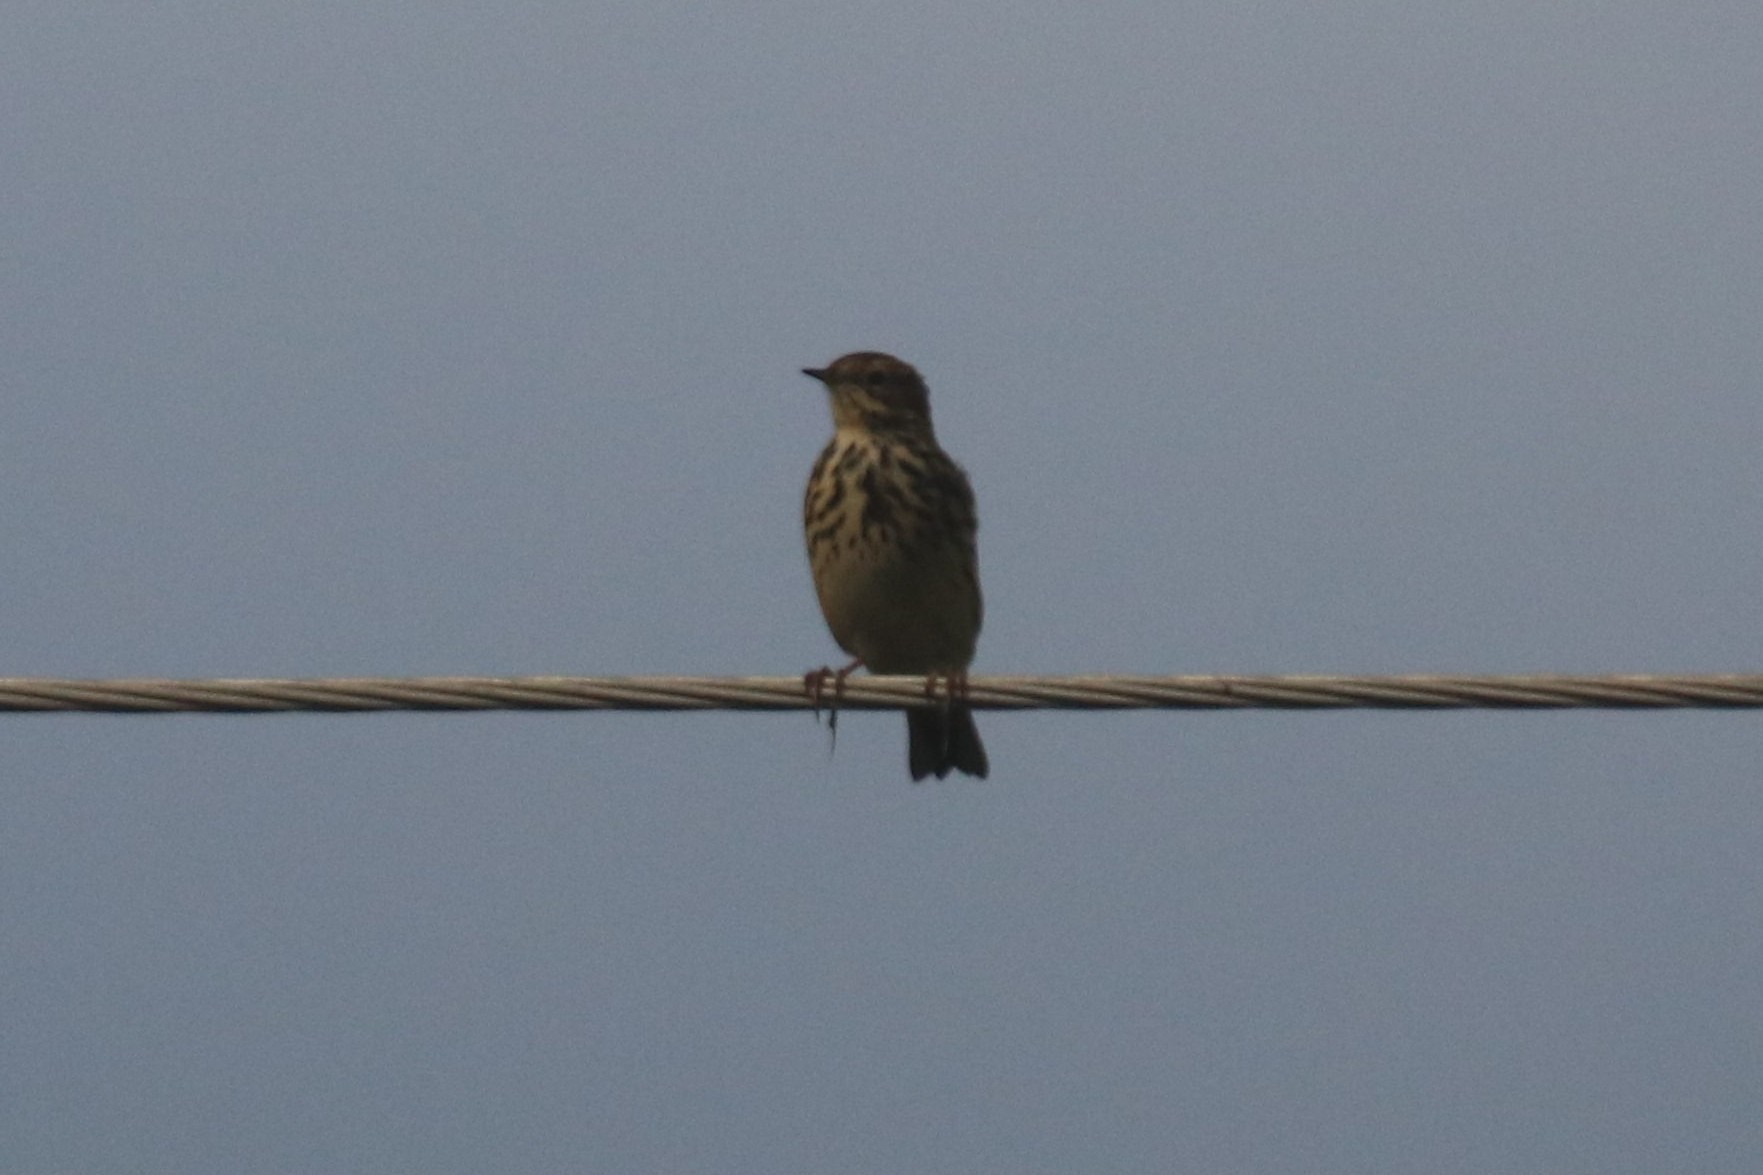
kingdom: Animalia
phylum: Chordata
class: Aves
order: Passeriformes
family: Motacillidae
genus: Anthus
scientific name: Anthus pratensis
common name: Meadow pipit
